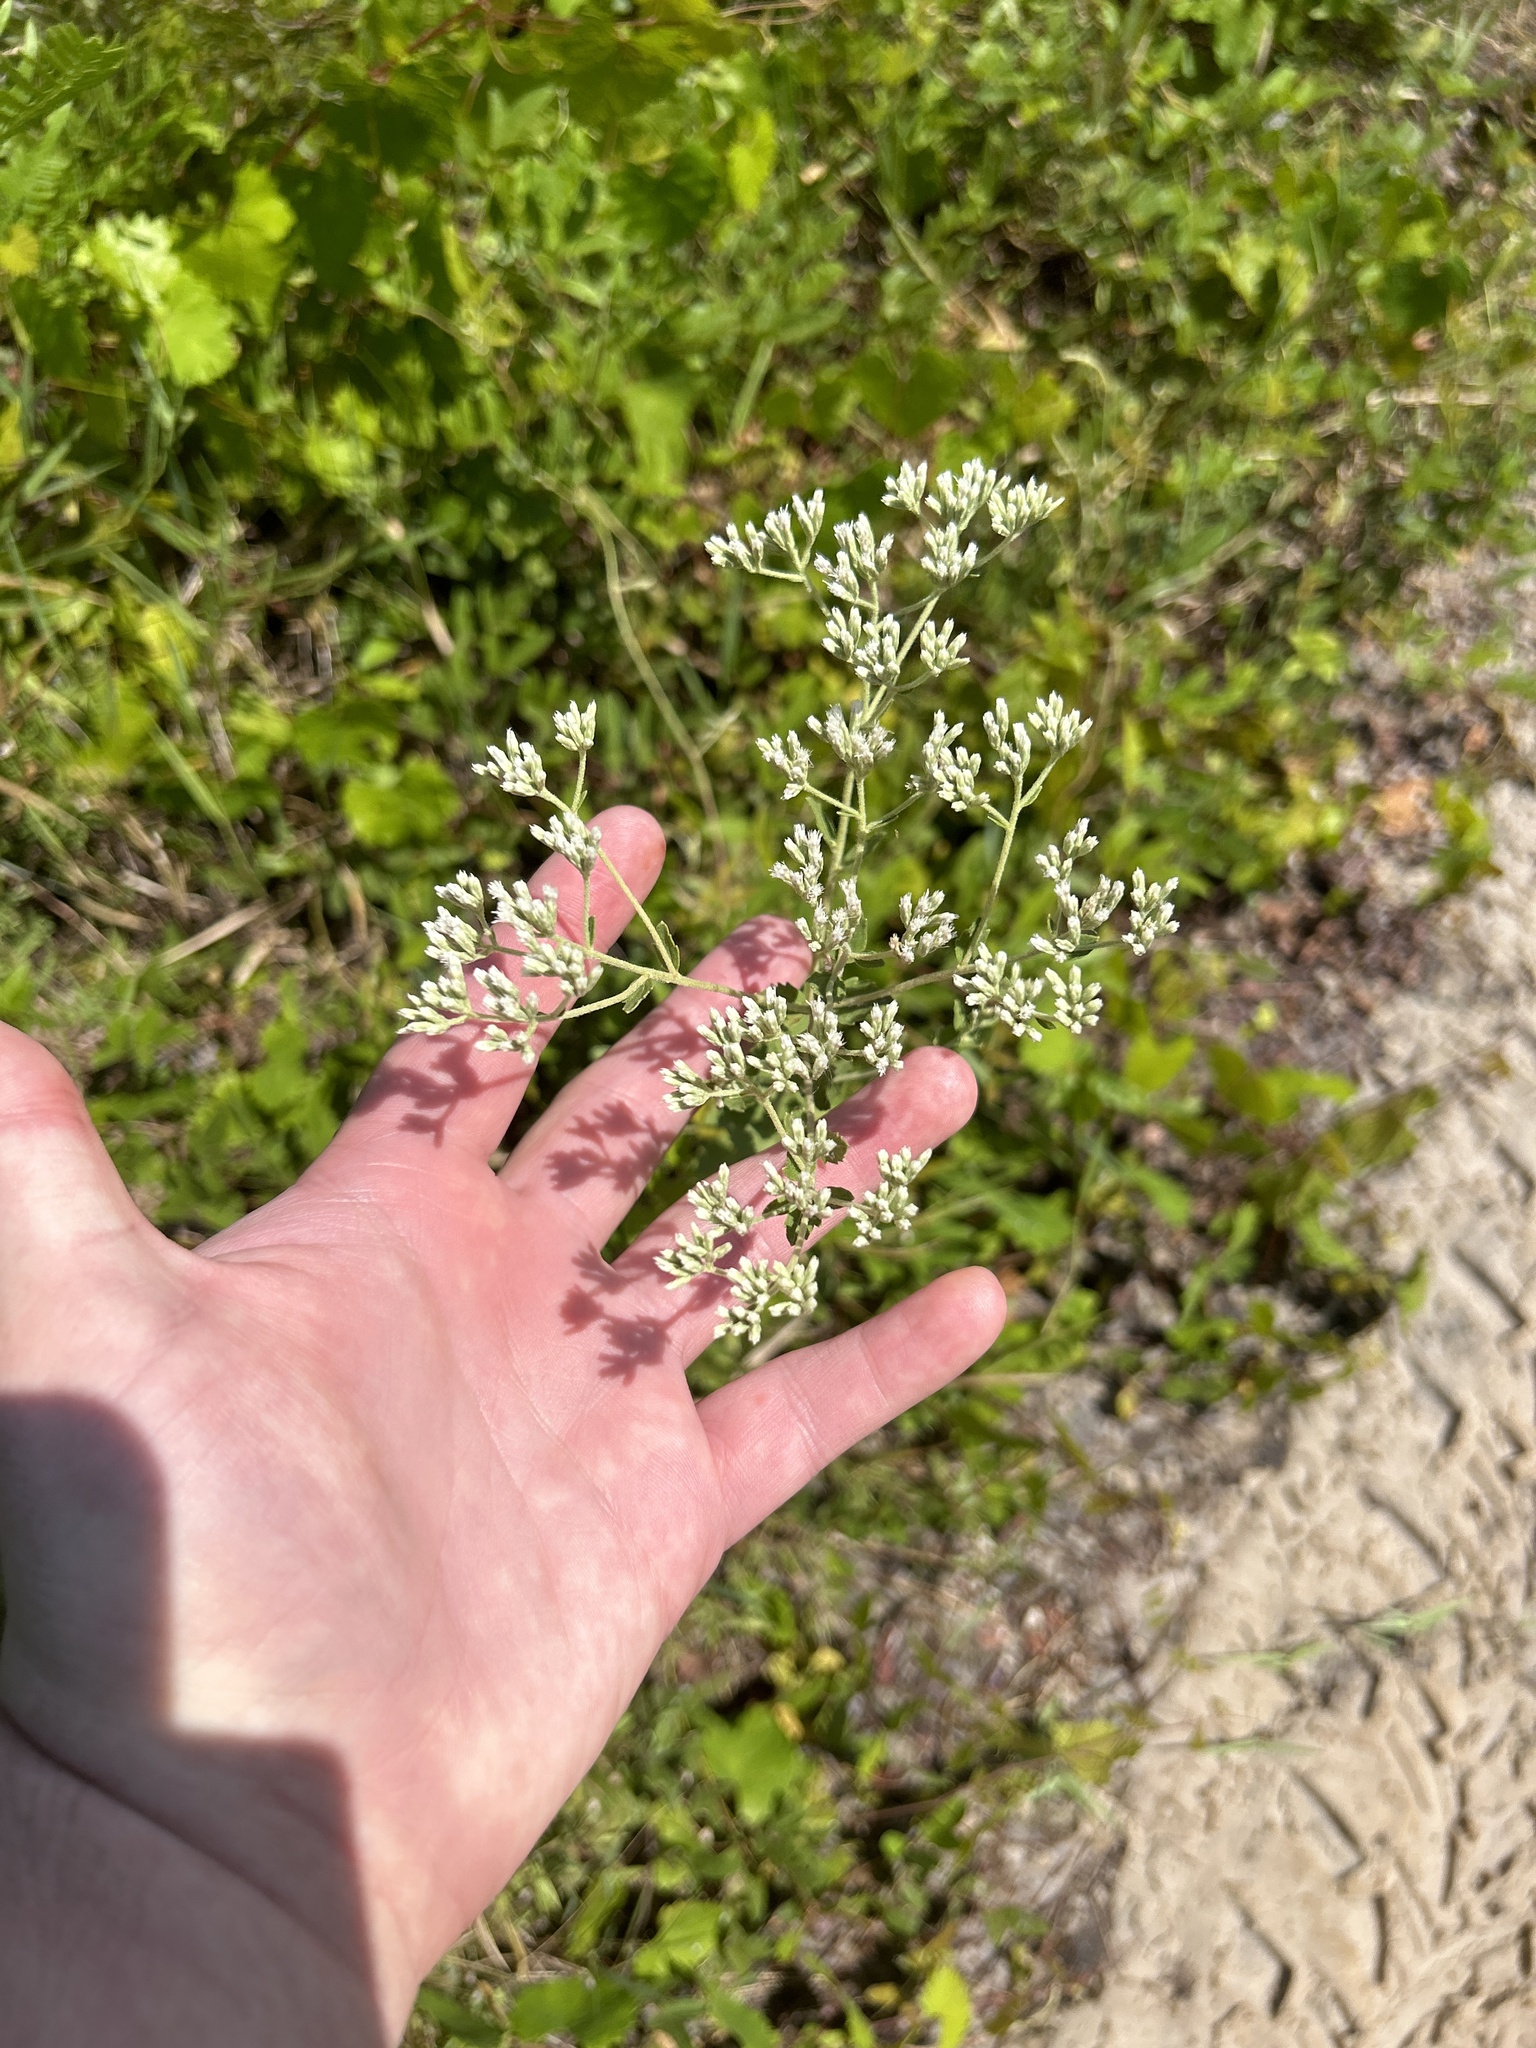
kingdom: Plantae
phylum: Tracheophyta
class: Magnoliopsida
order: Asterales
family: Asteraceae
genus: Eupatorium
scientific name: Eupatorium rotundifolium
